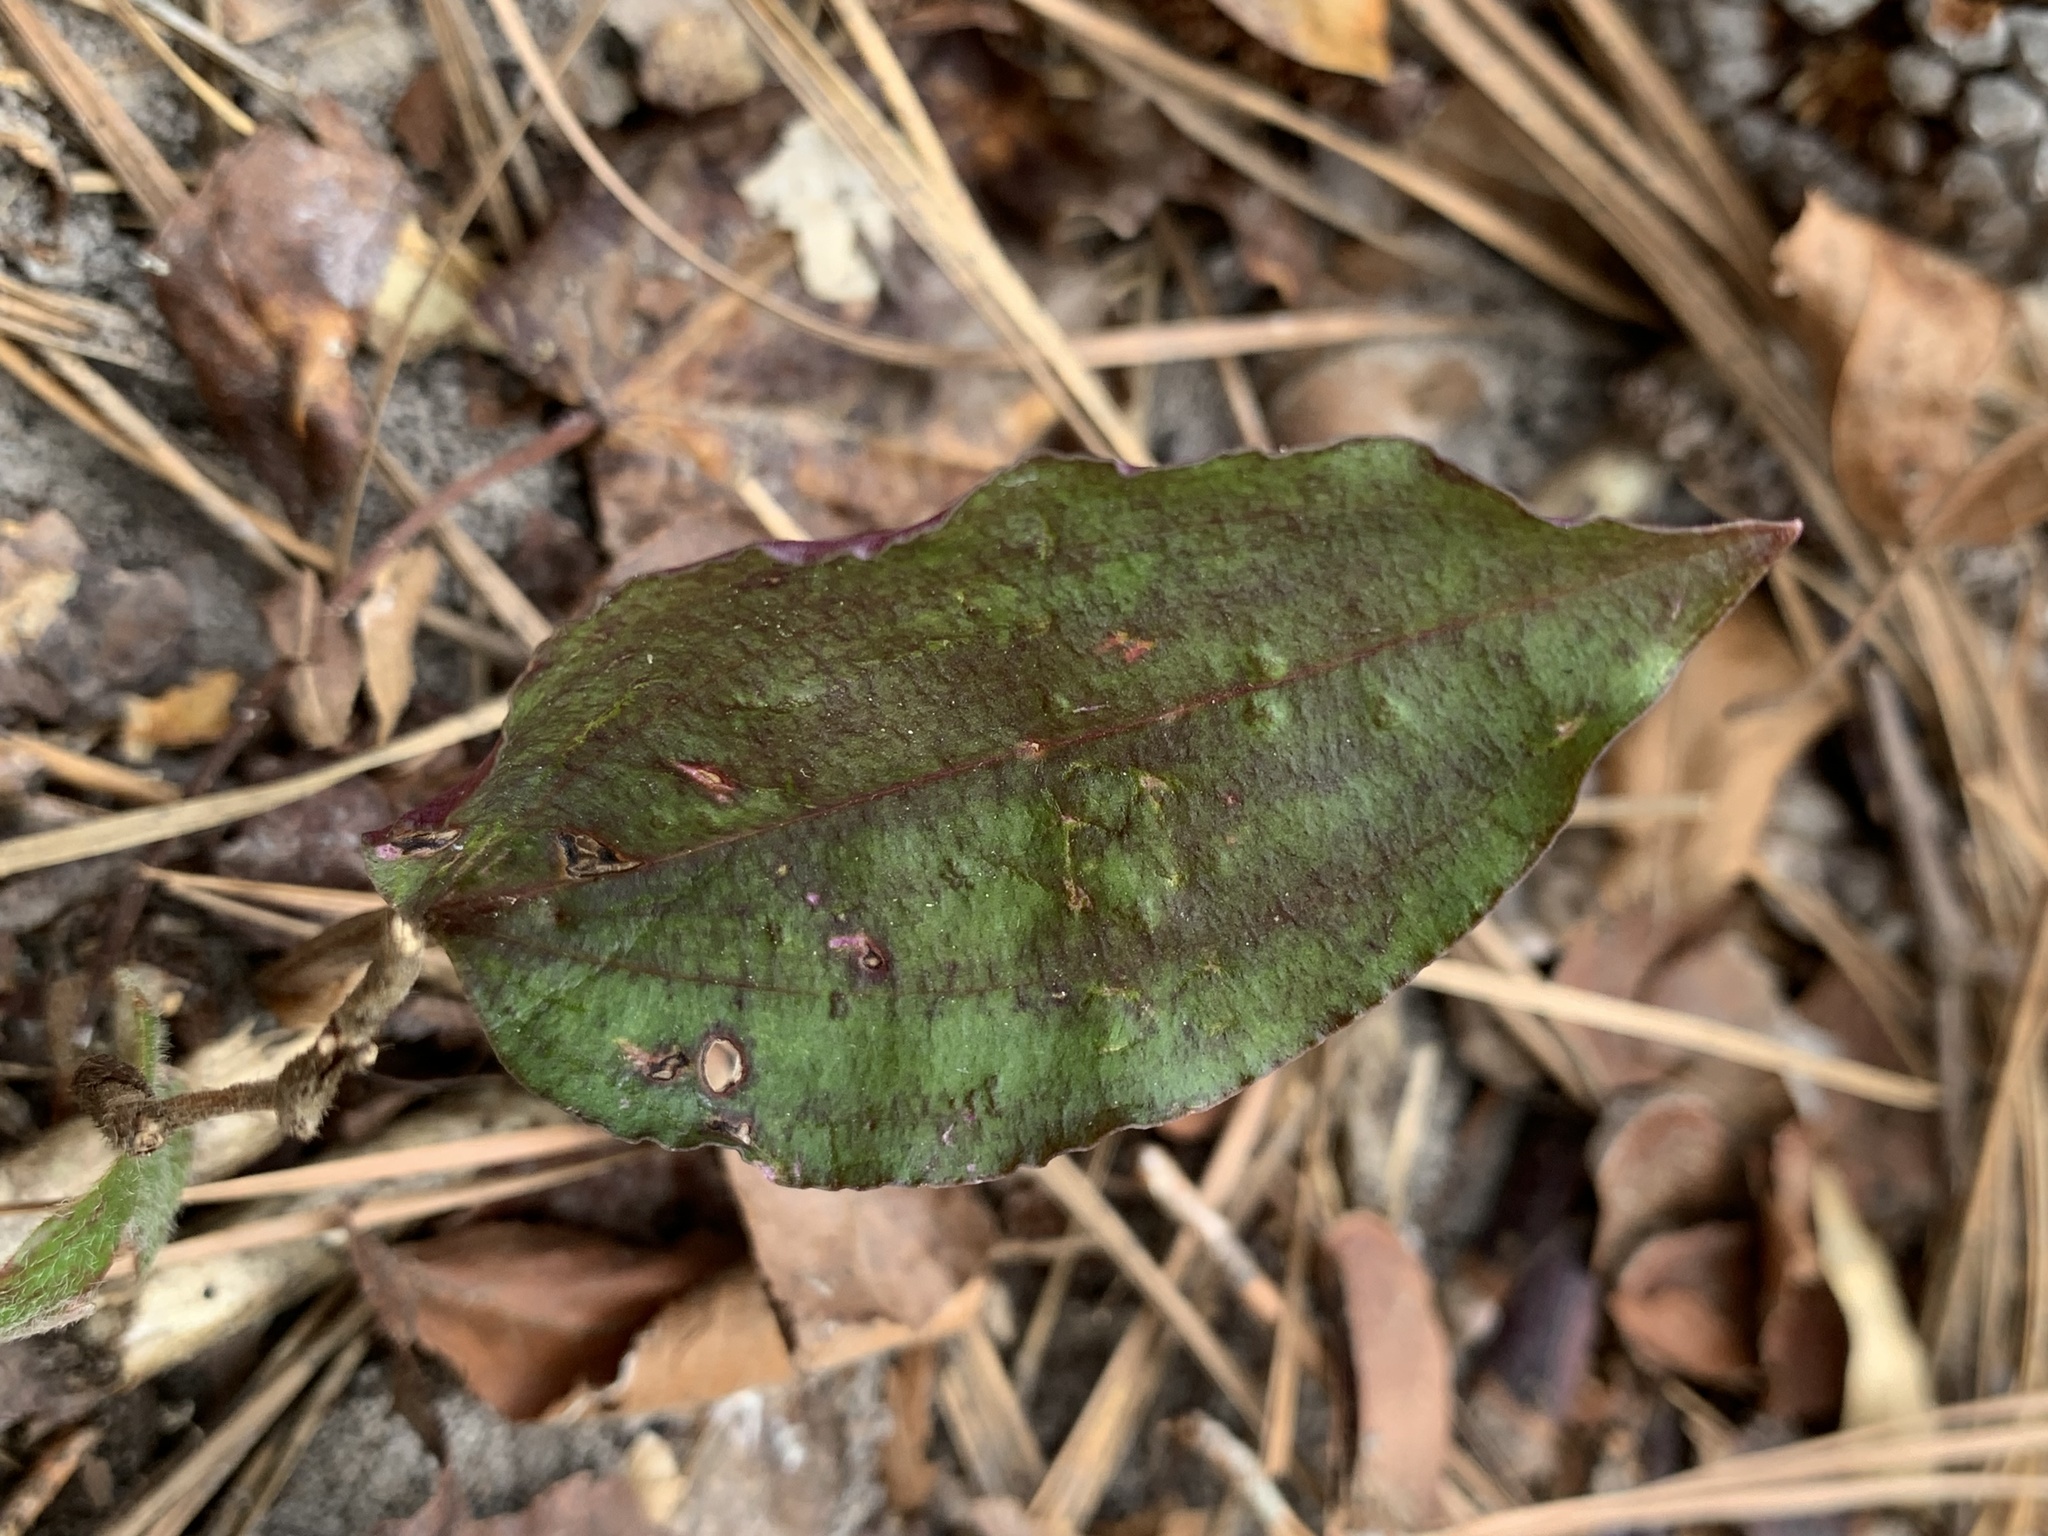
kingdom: Plantae
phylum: Tracheophyta
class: Liliopsida
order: Asparagales
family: Orchidaceae
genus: Tipularia
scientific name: Tipularia discolor
